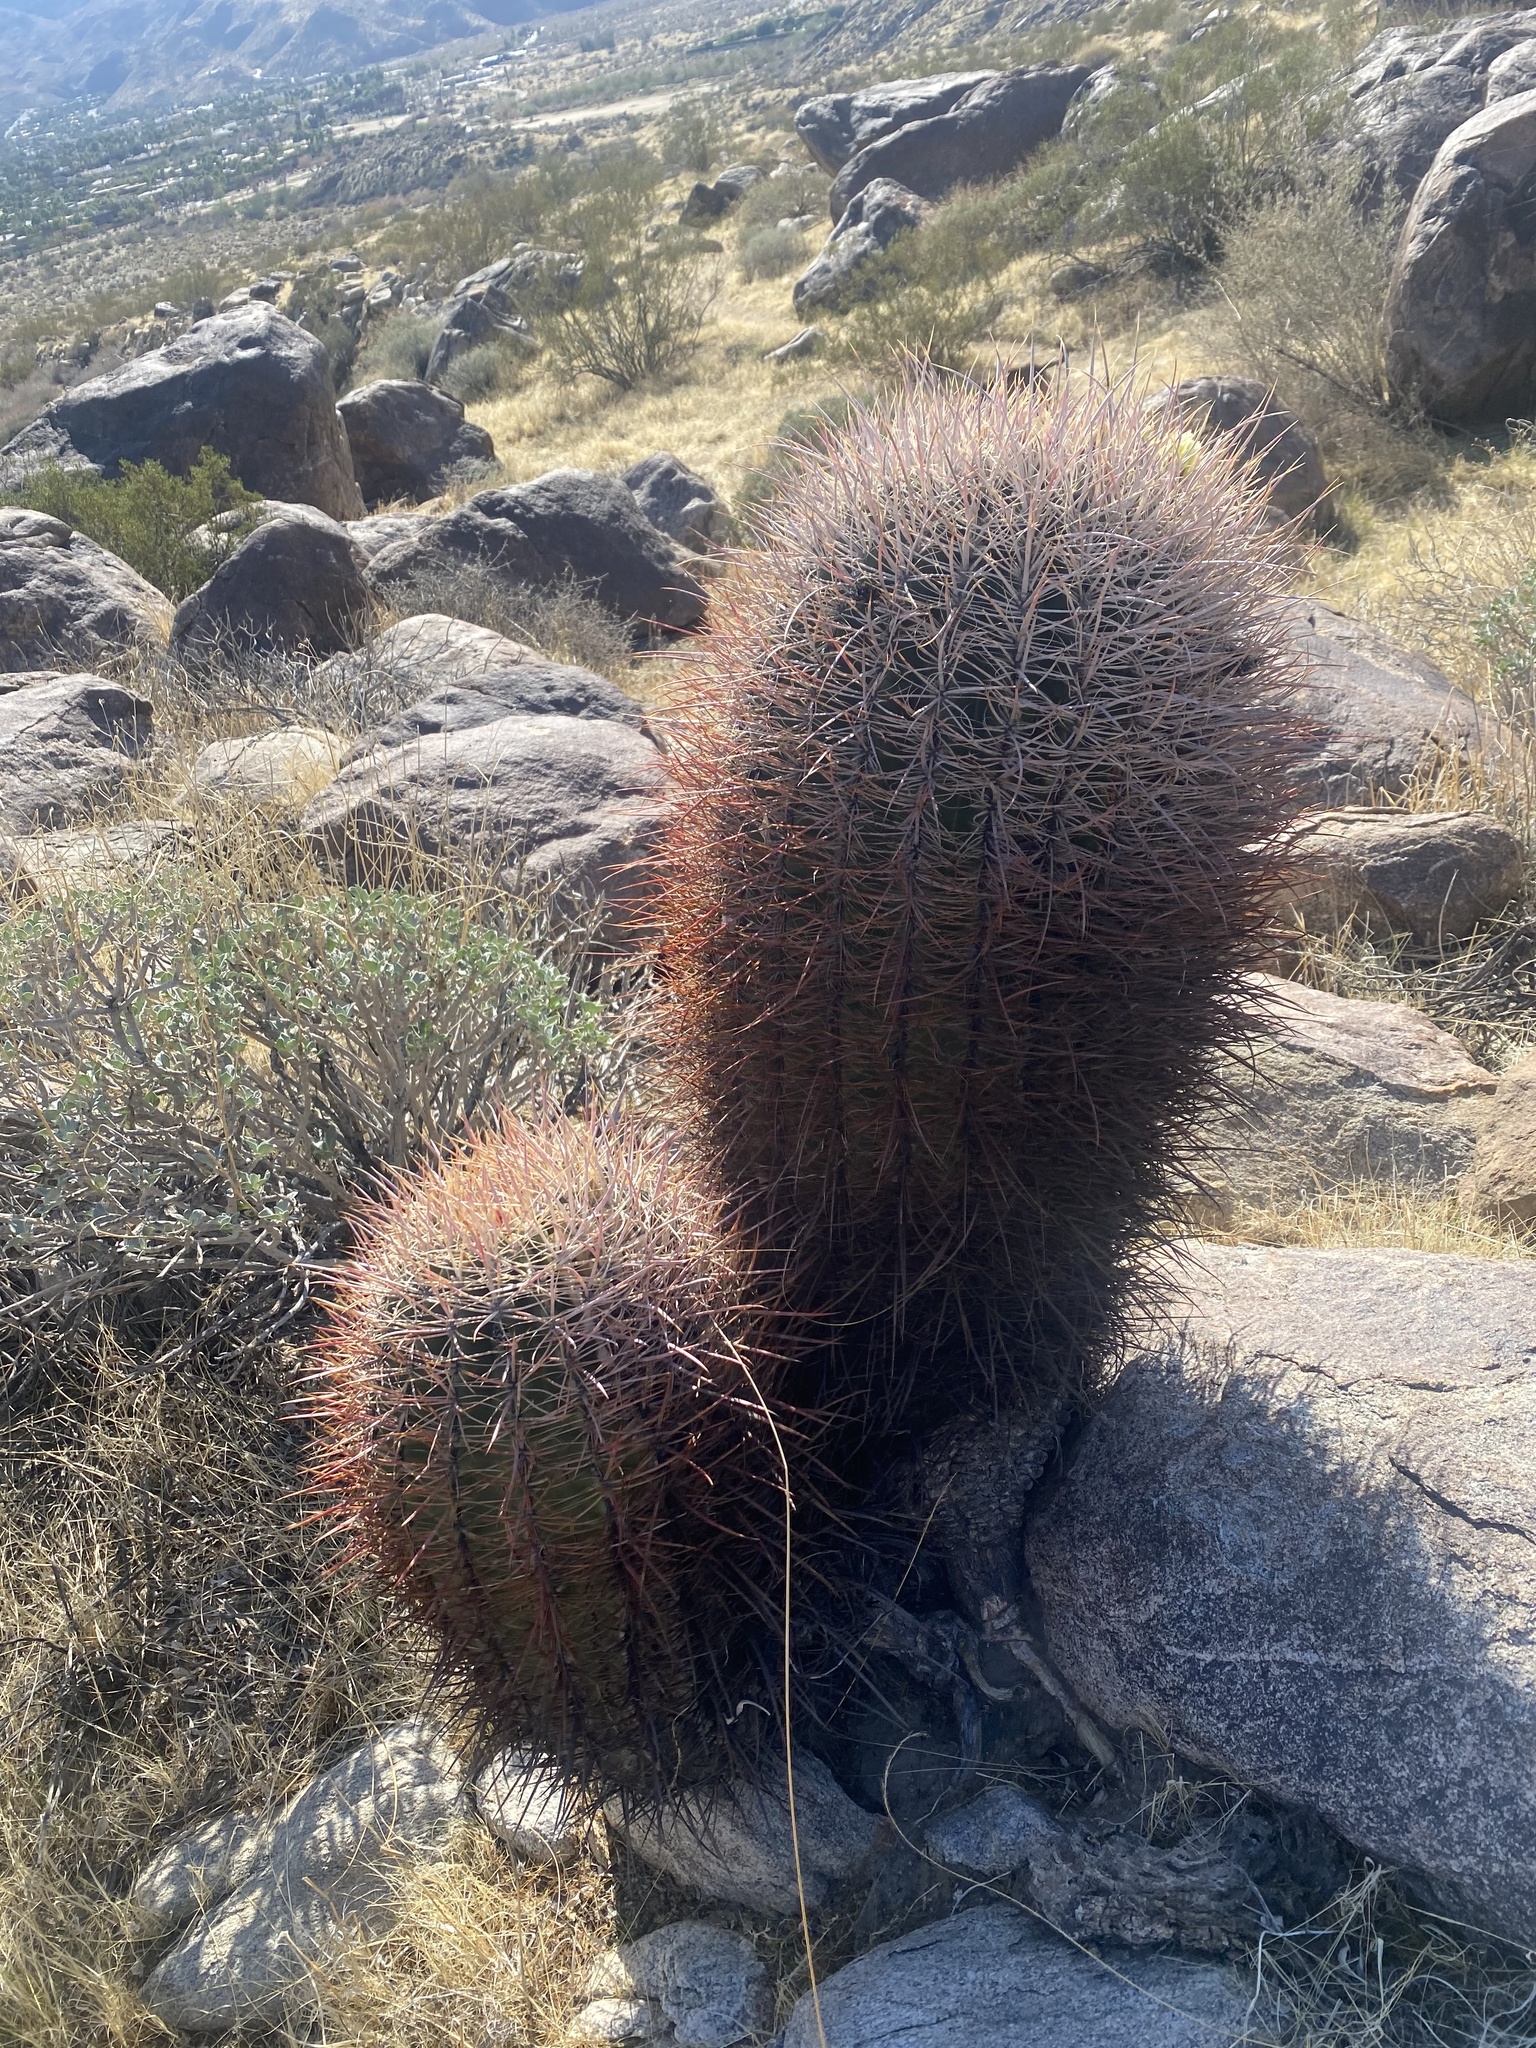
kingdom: Plantae
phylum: Tracheophyta
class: Magnoliopsida
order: Caryophyllales
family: Cactaceae
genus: Ferocactus
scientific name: Ferocactus cylindraceus
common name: California barrel cactus
